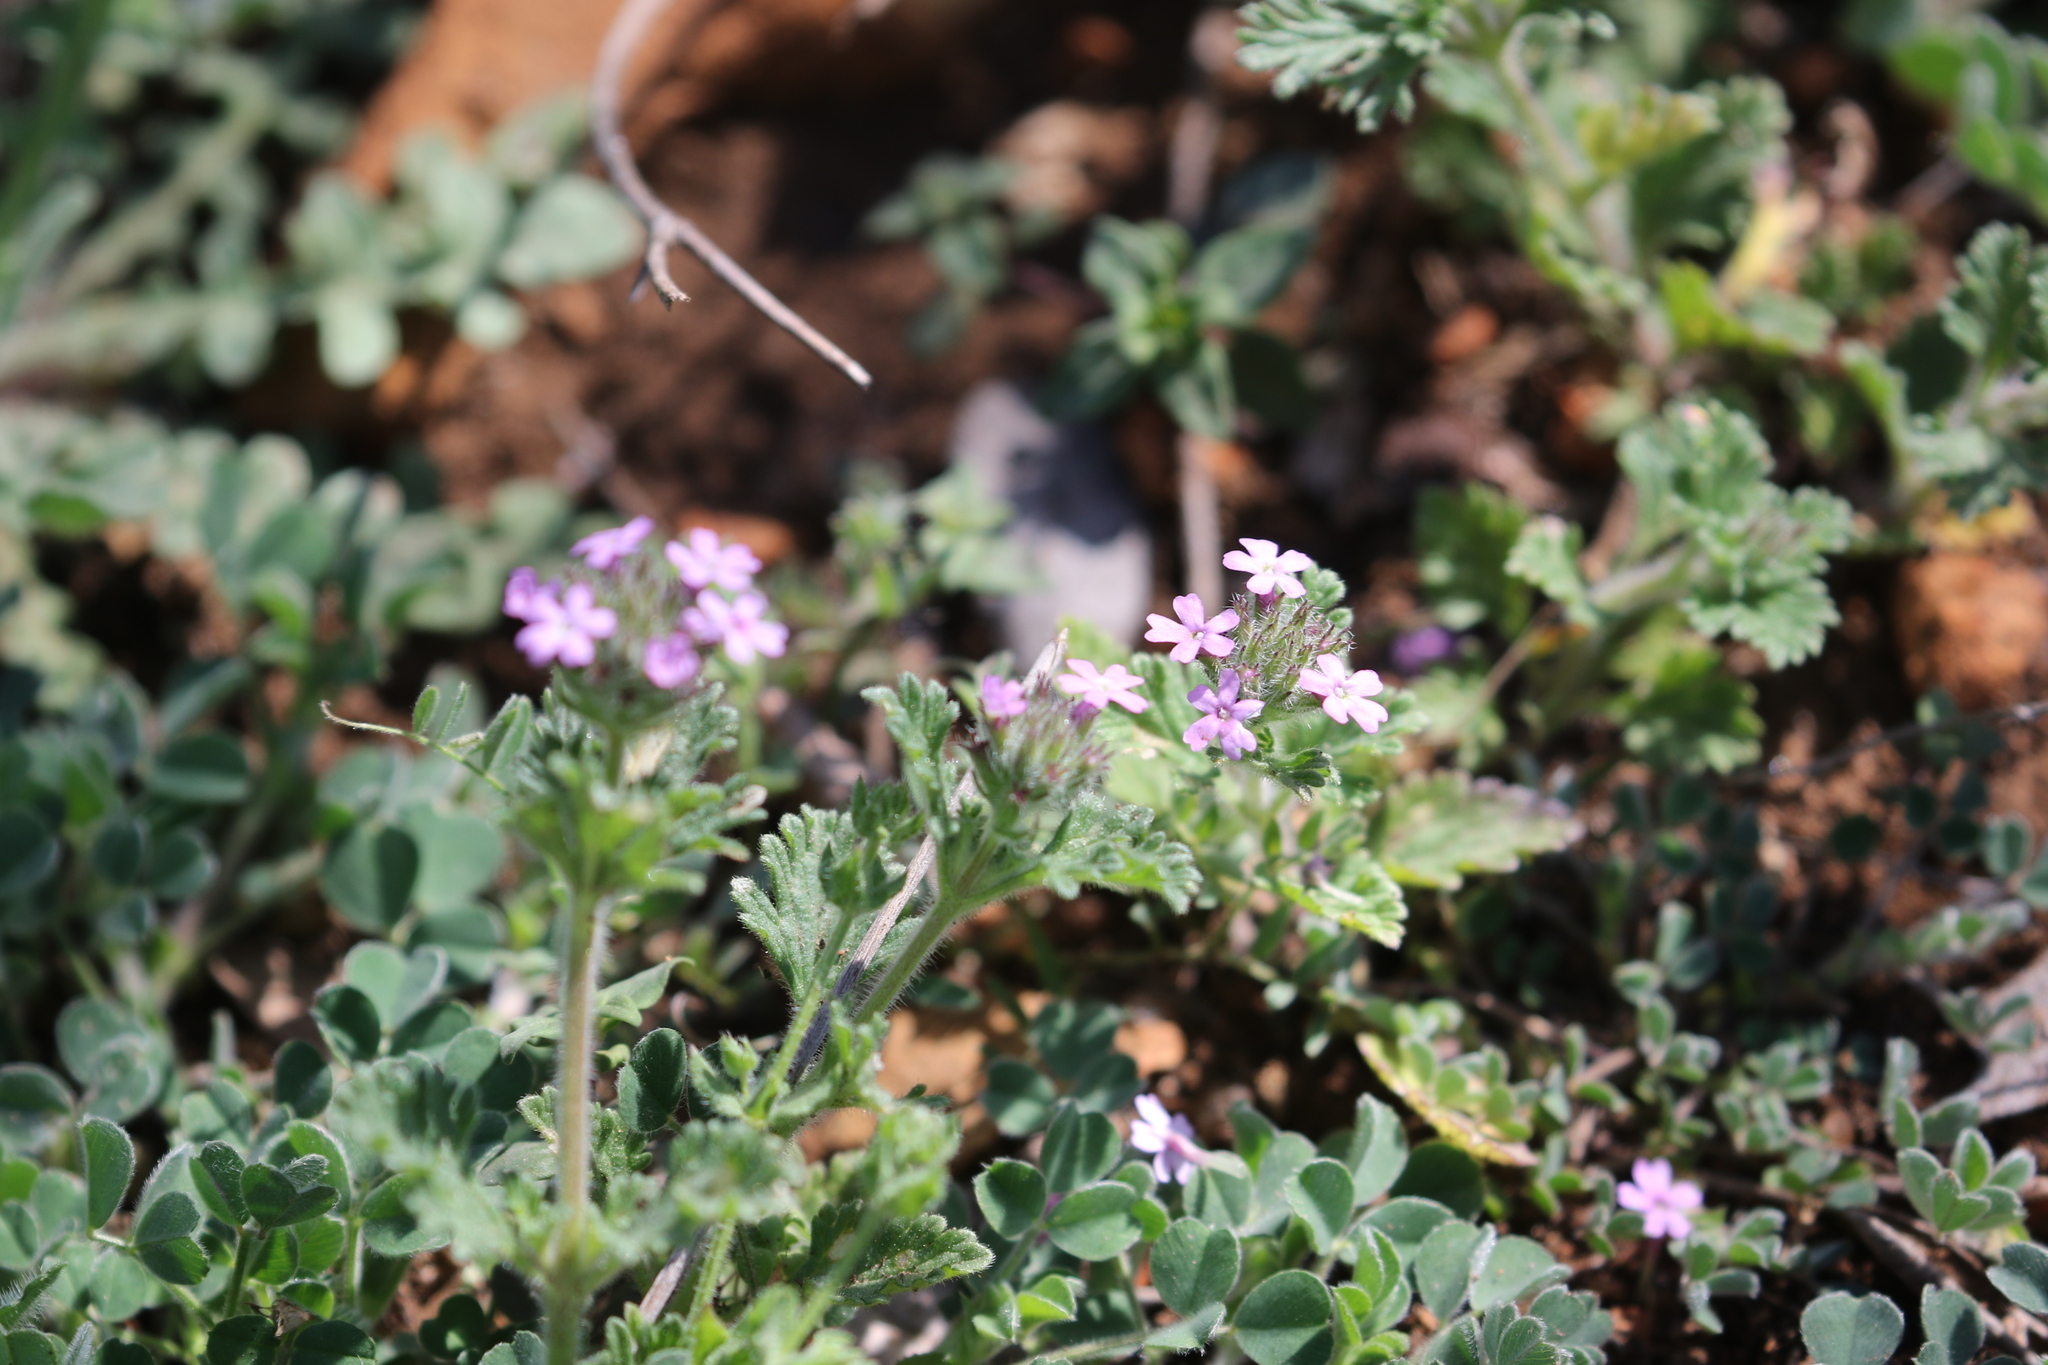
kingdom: Plantae
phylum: Tracheophyta
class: Magnoliopsida
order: Lamiales
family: Verbenaceae
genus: Verbena
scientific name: Verbena pumila
